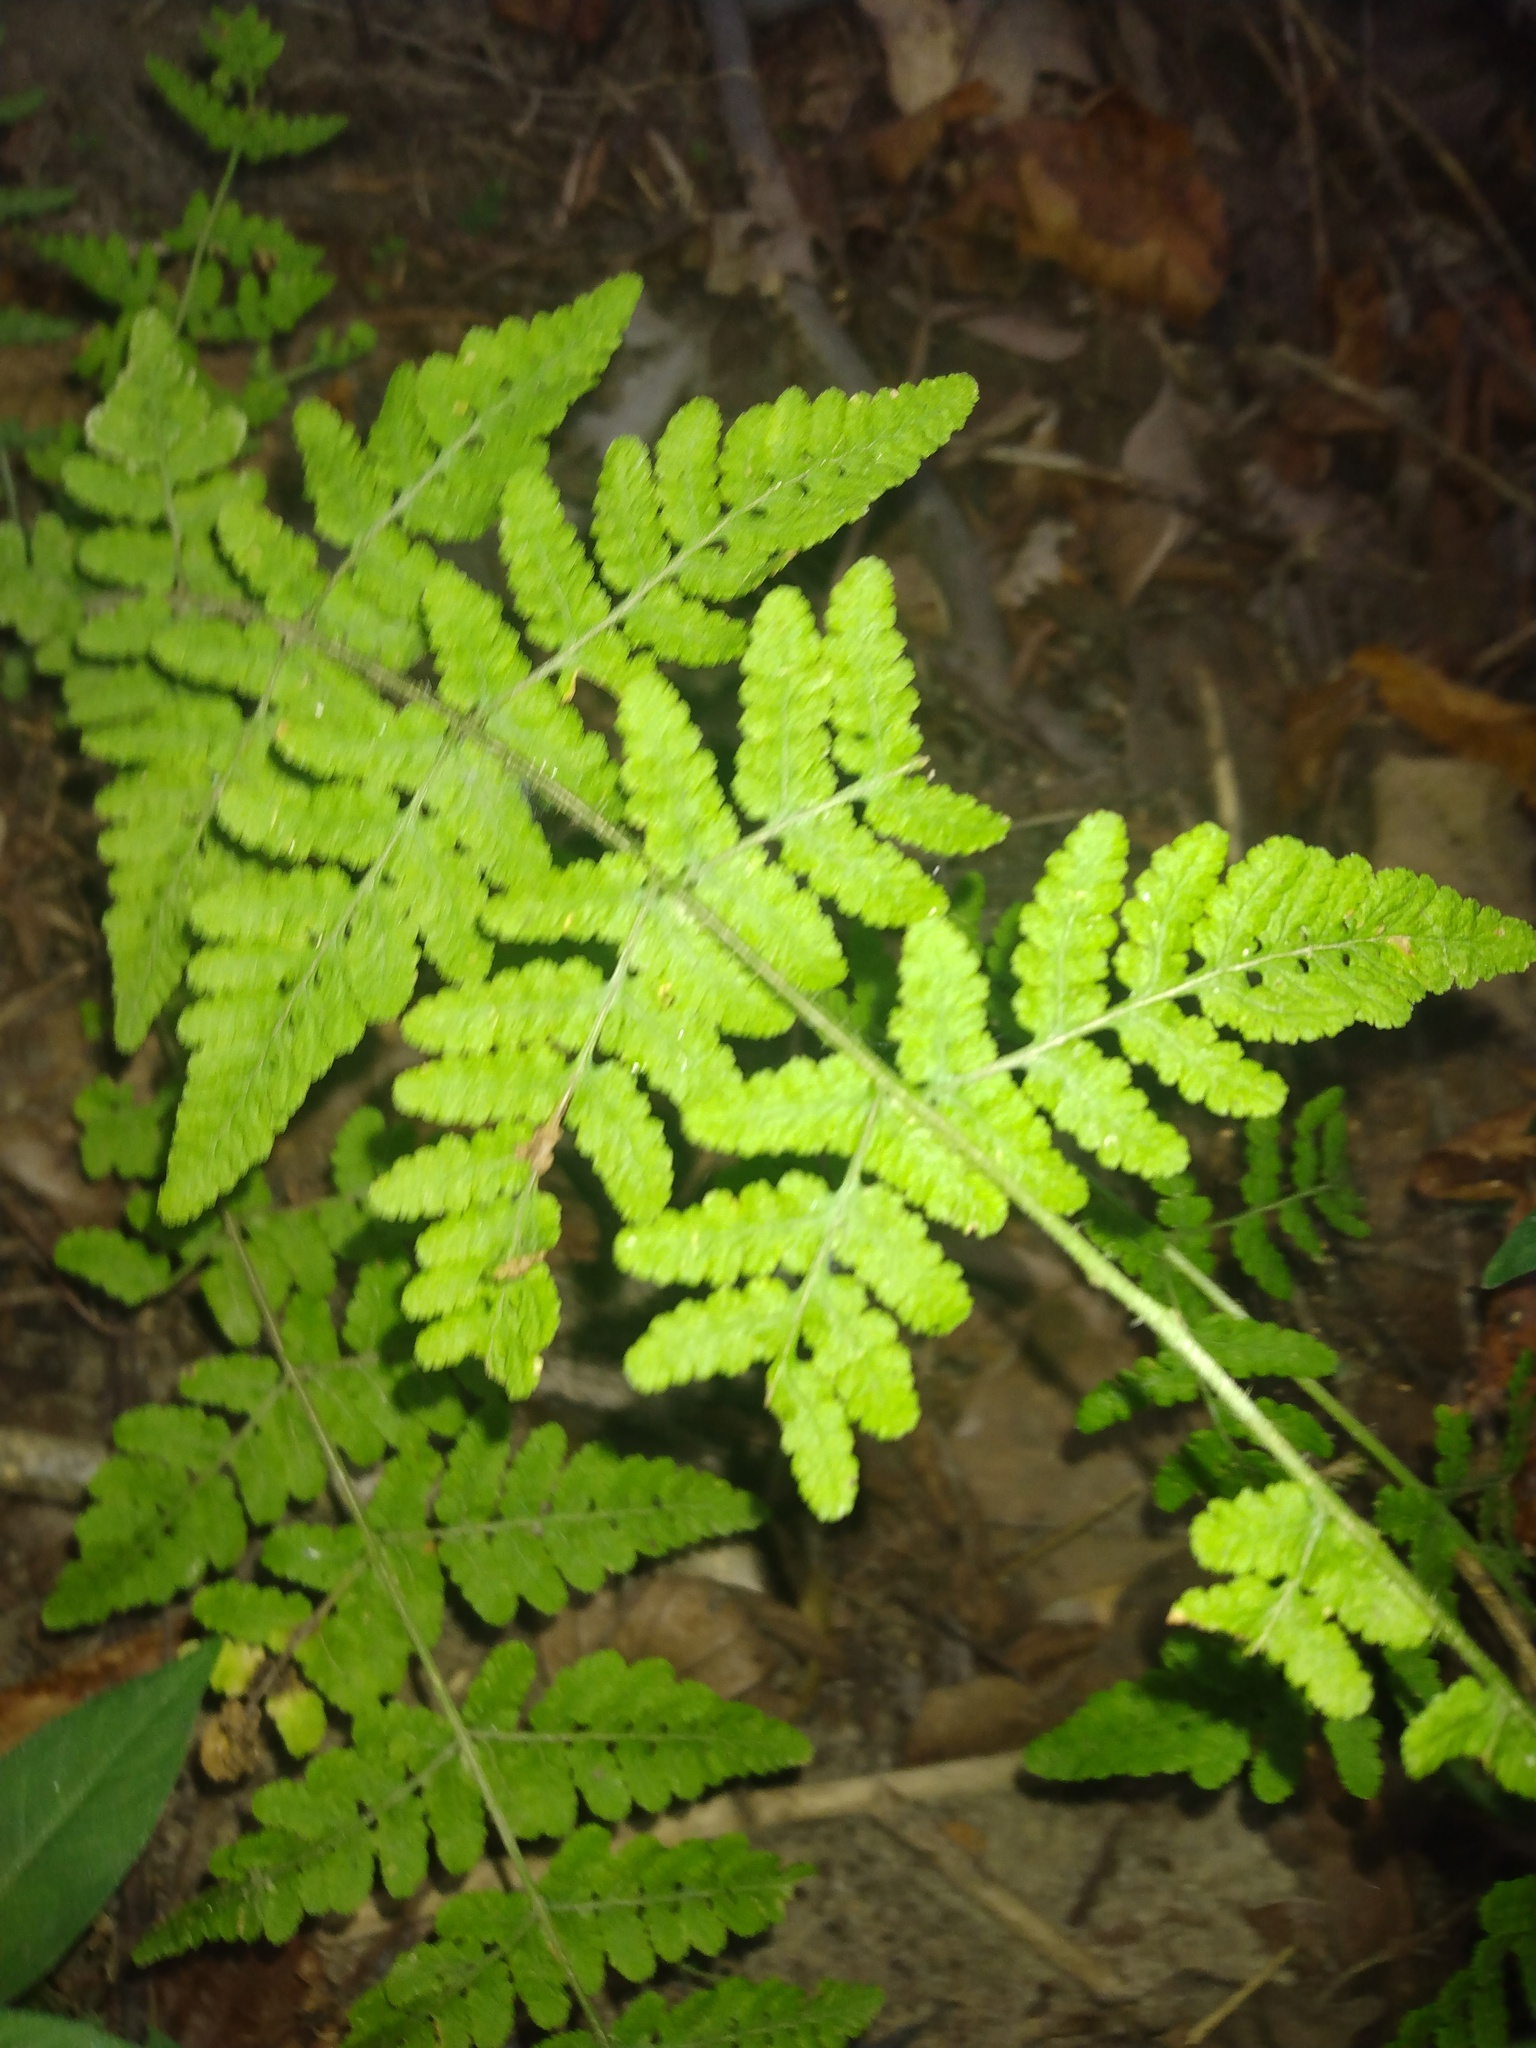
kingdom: Plantae
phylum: Tracheophyta
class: Polypodiopsida
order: Polypodiales
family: Woodsiaceae
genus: Physematium
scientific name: Physematium obtusum
